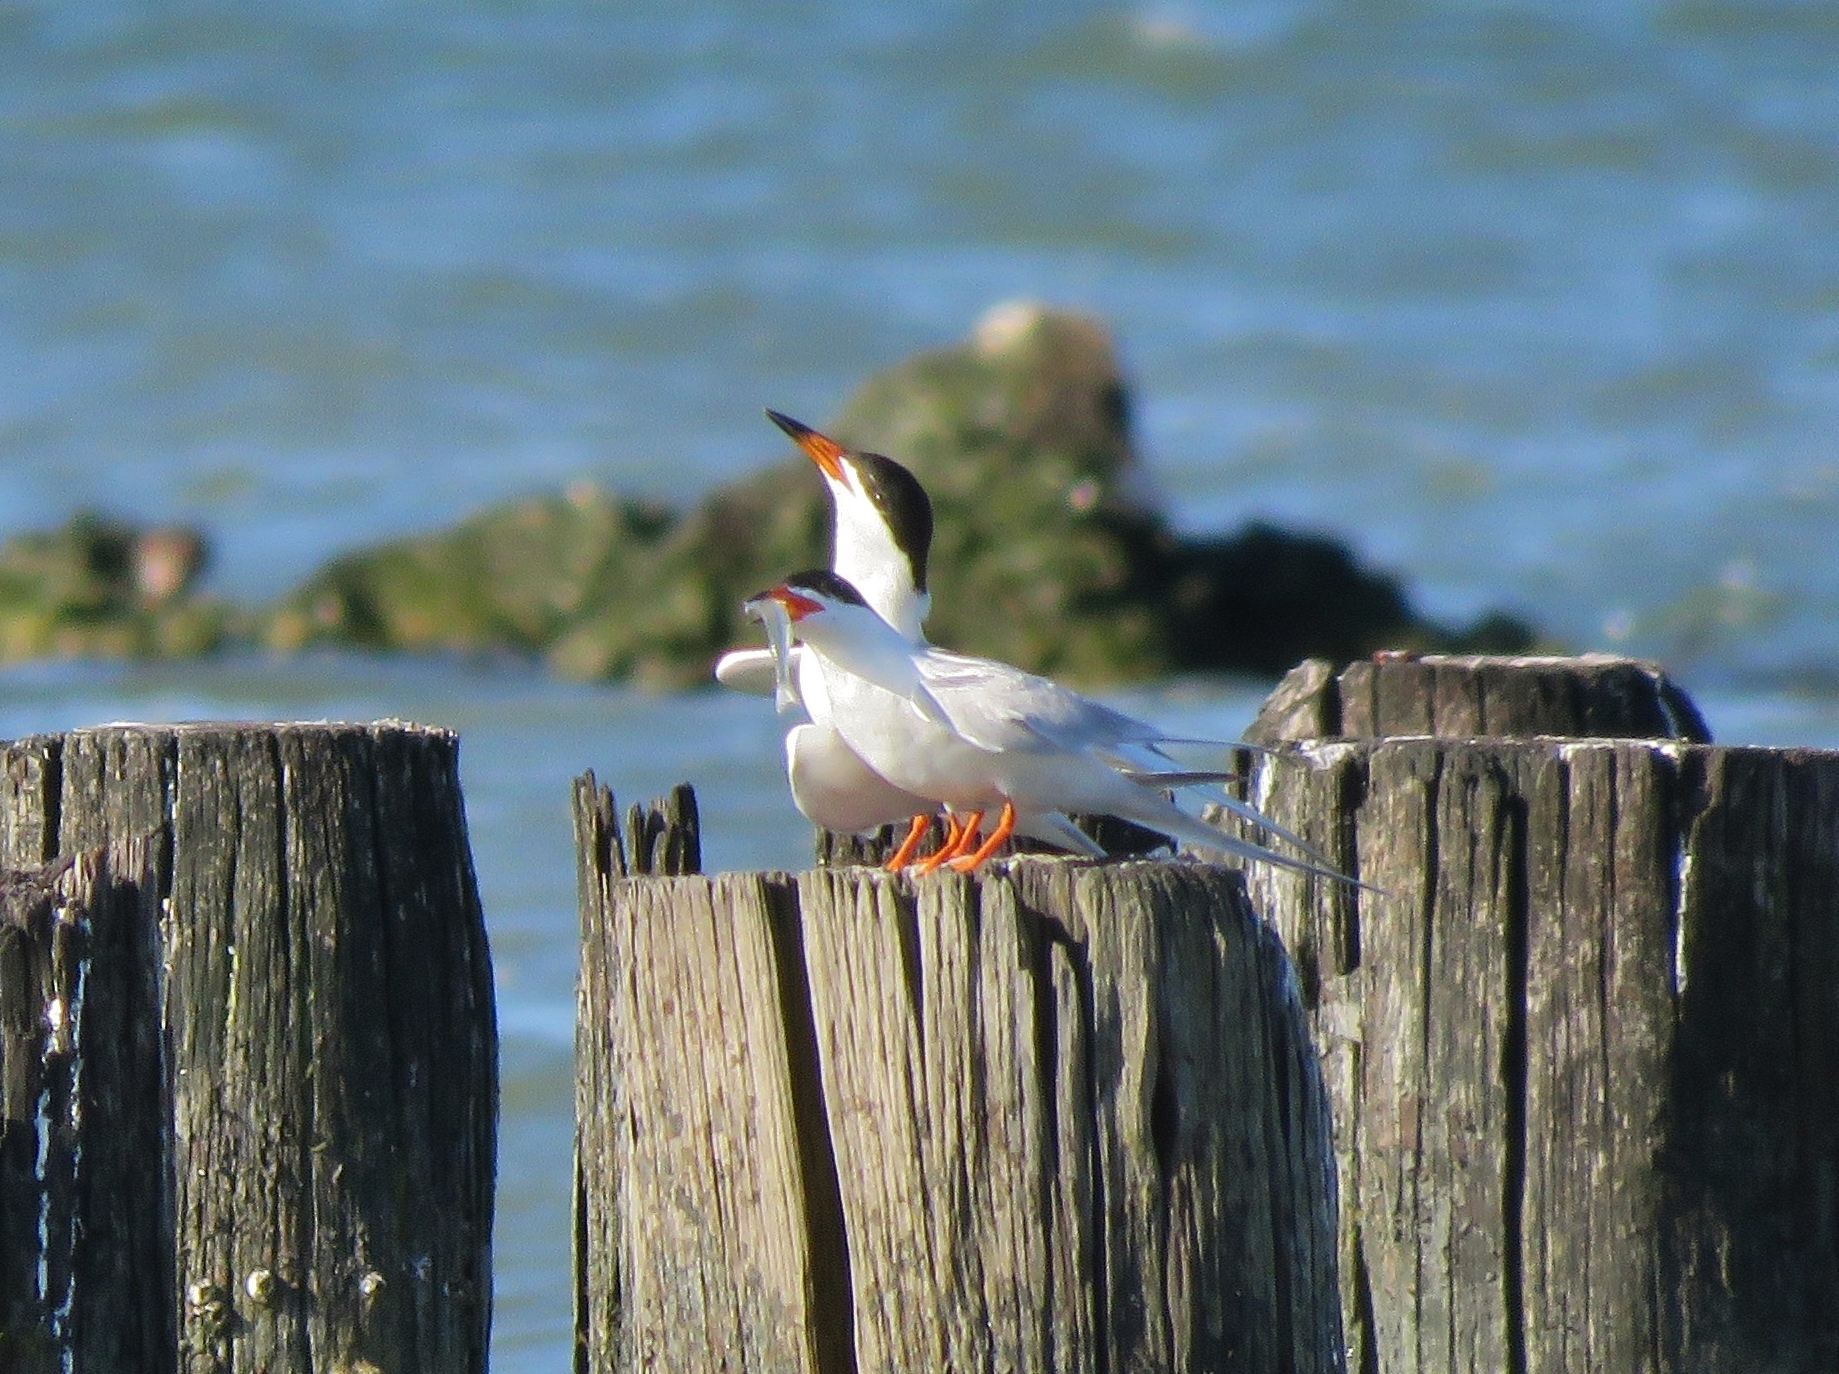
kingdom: Animalia
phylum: Chordata
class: Aves
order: Charadriiformes
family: Laridae
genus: Sterna
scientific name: Sterna forsteri
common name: Forster's tern
